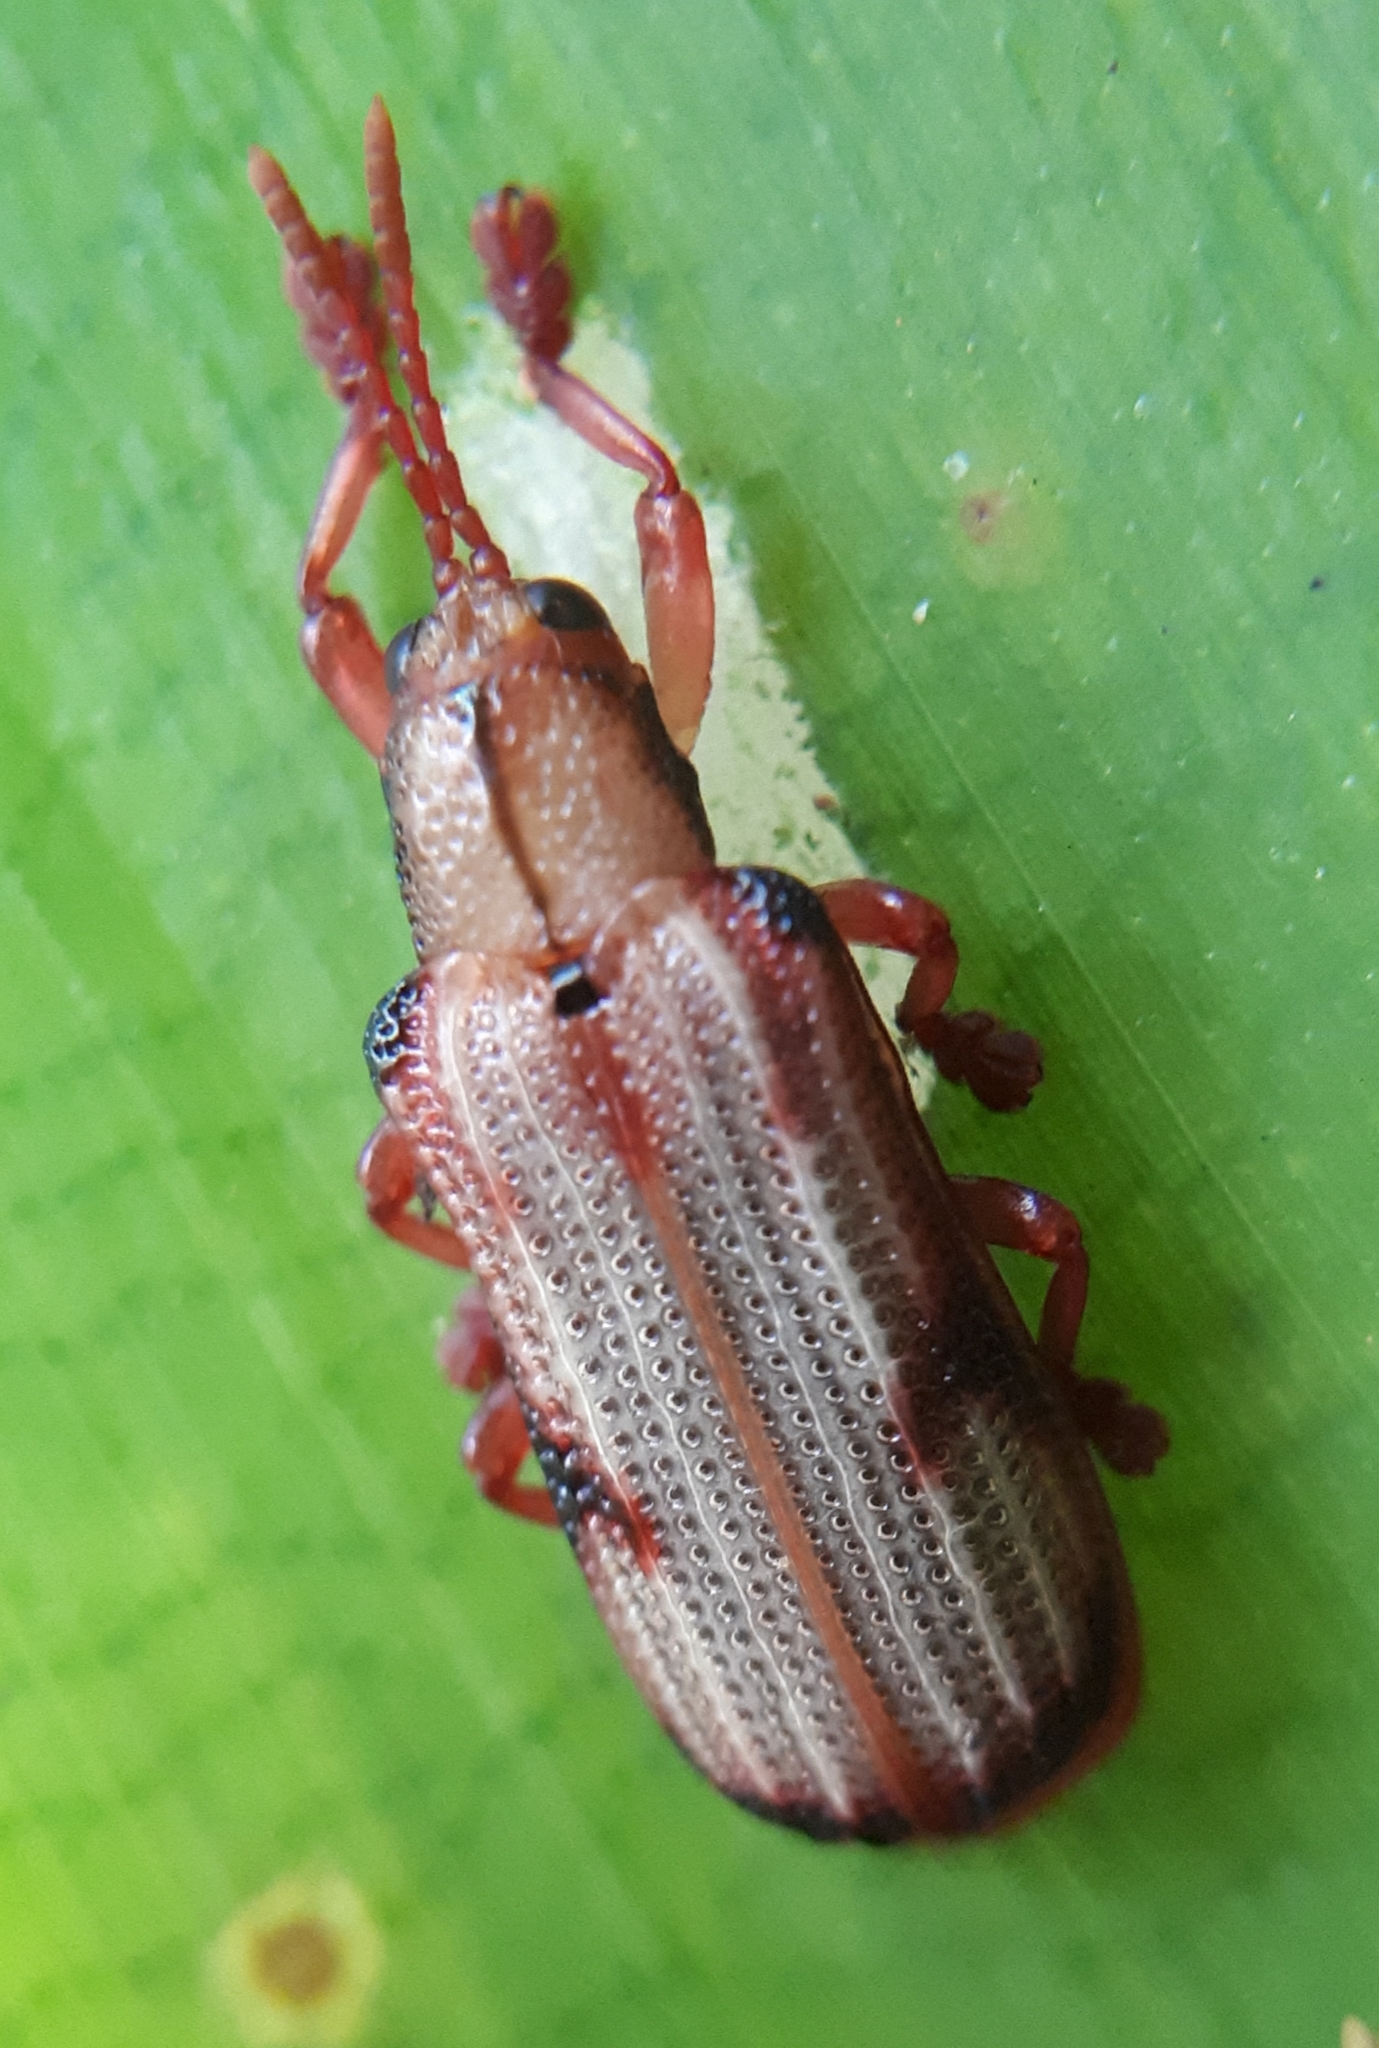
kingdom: Animalia
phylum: Arthropoda
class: Insecta
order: Coleoptera
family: Chrysomelidae
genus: Acentroptera
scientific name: Acentroptera norrisii
